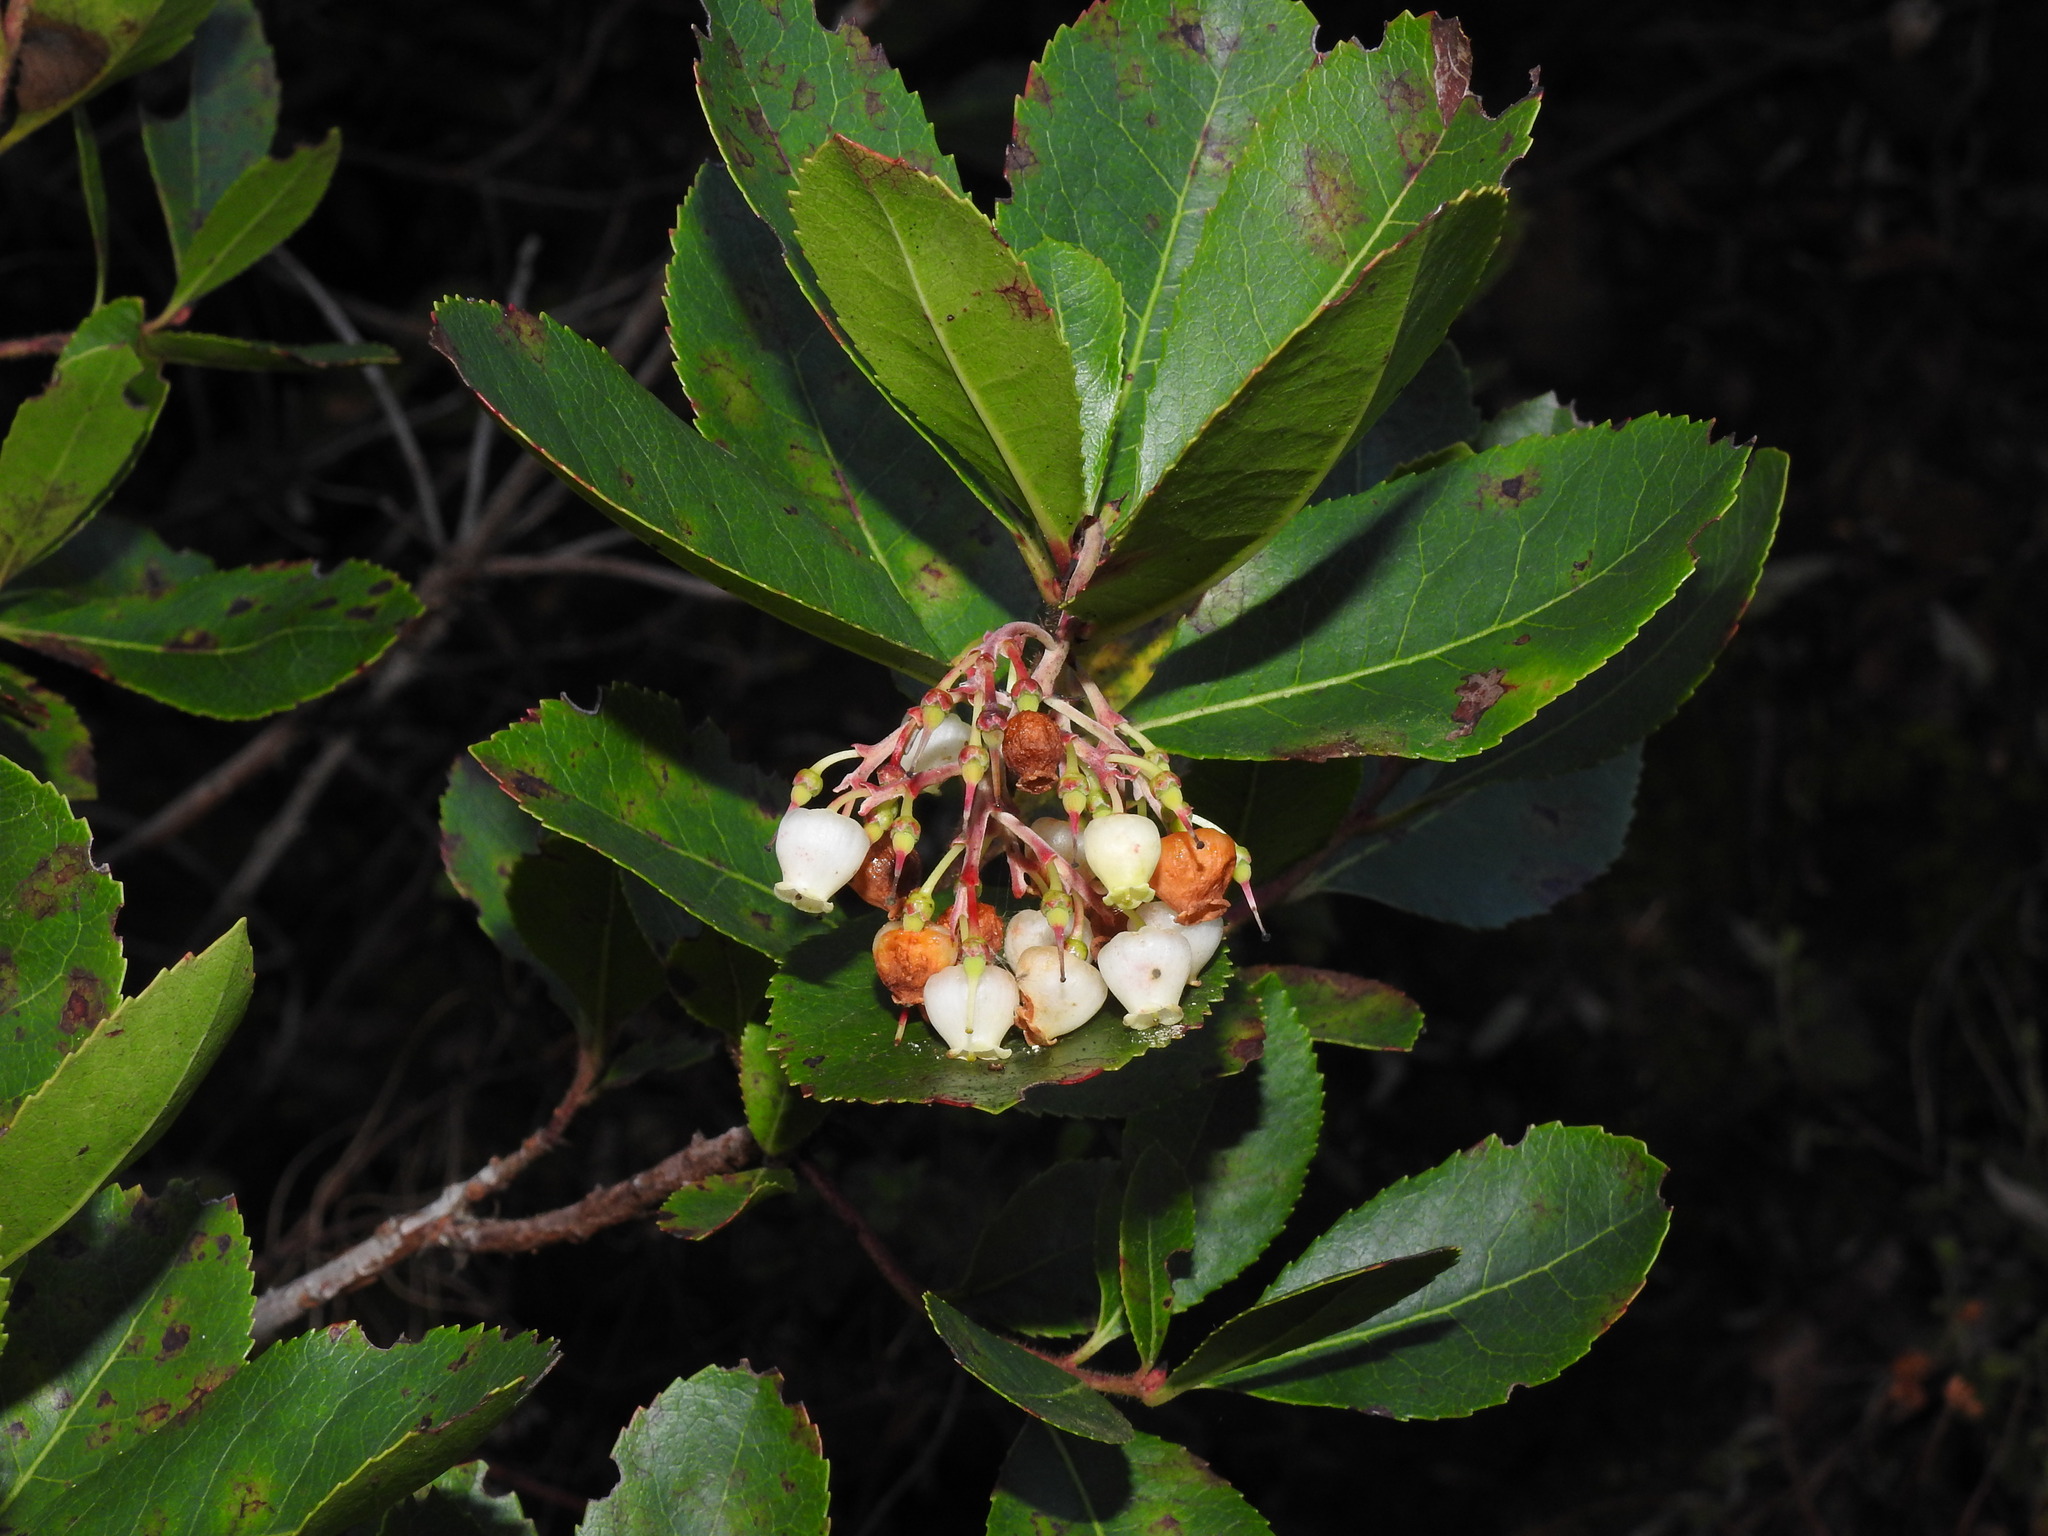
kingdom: Plantae
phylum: Tracheophyta
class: Magnoliopsida
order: Ericales
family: Ericaceae
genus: Arbutus
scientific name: Arbutus unedo
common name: Strawberry-tree
